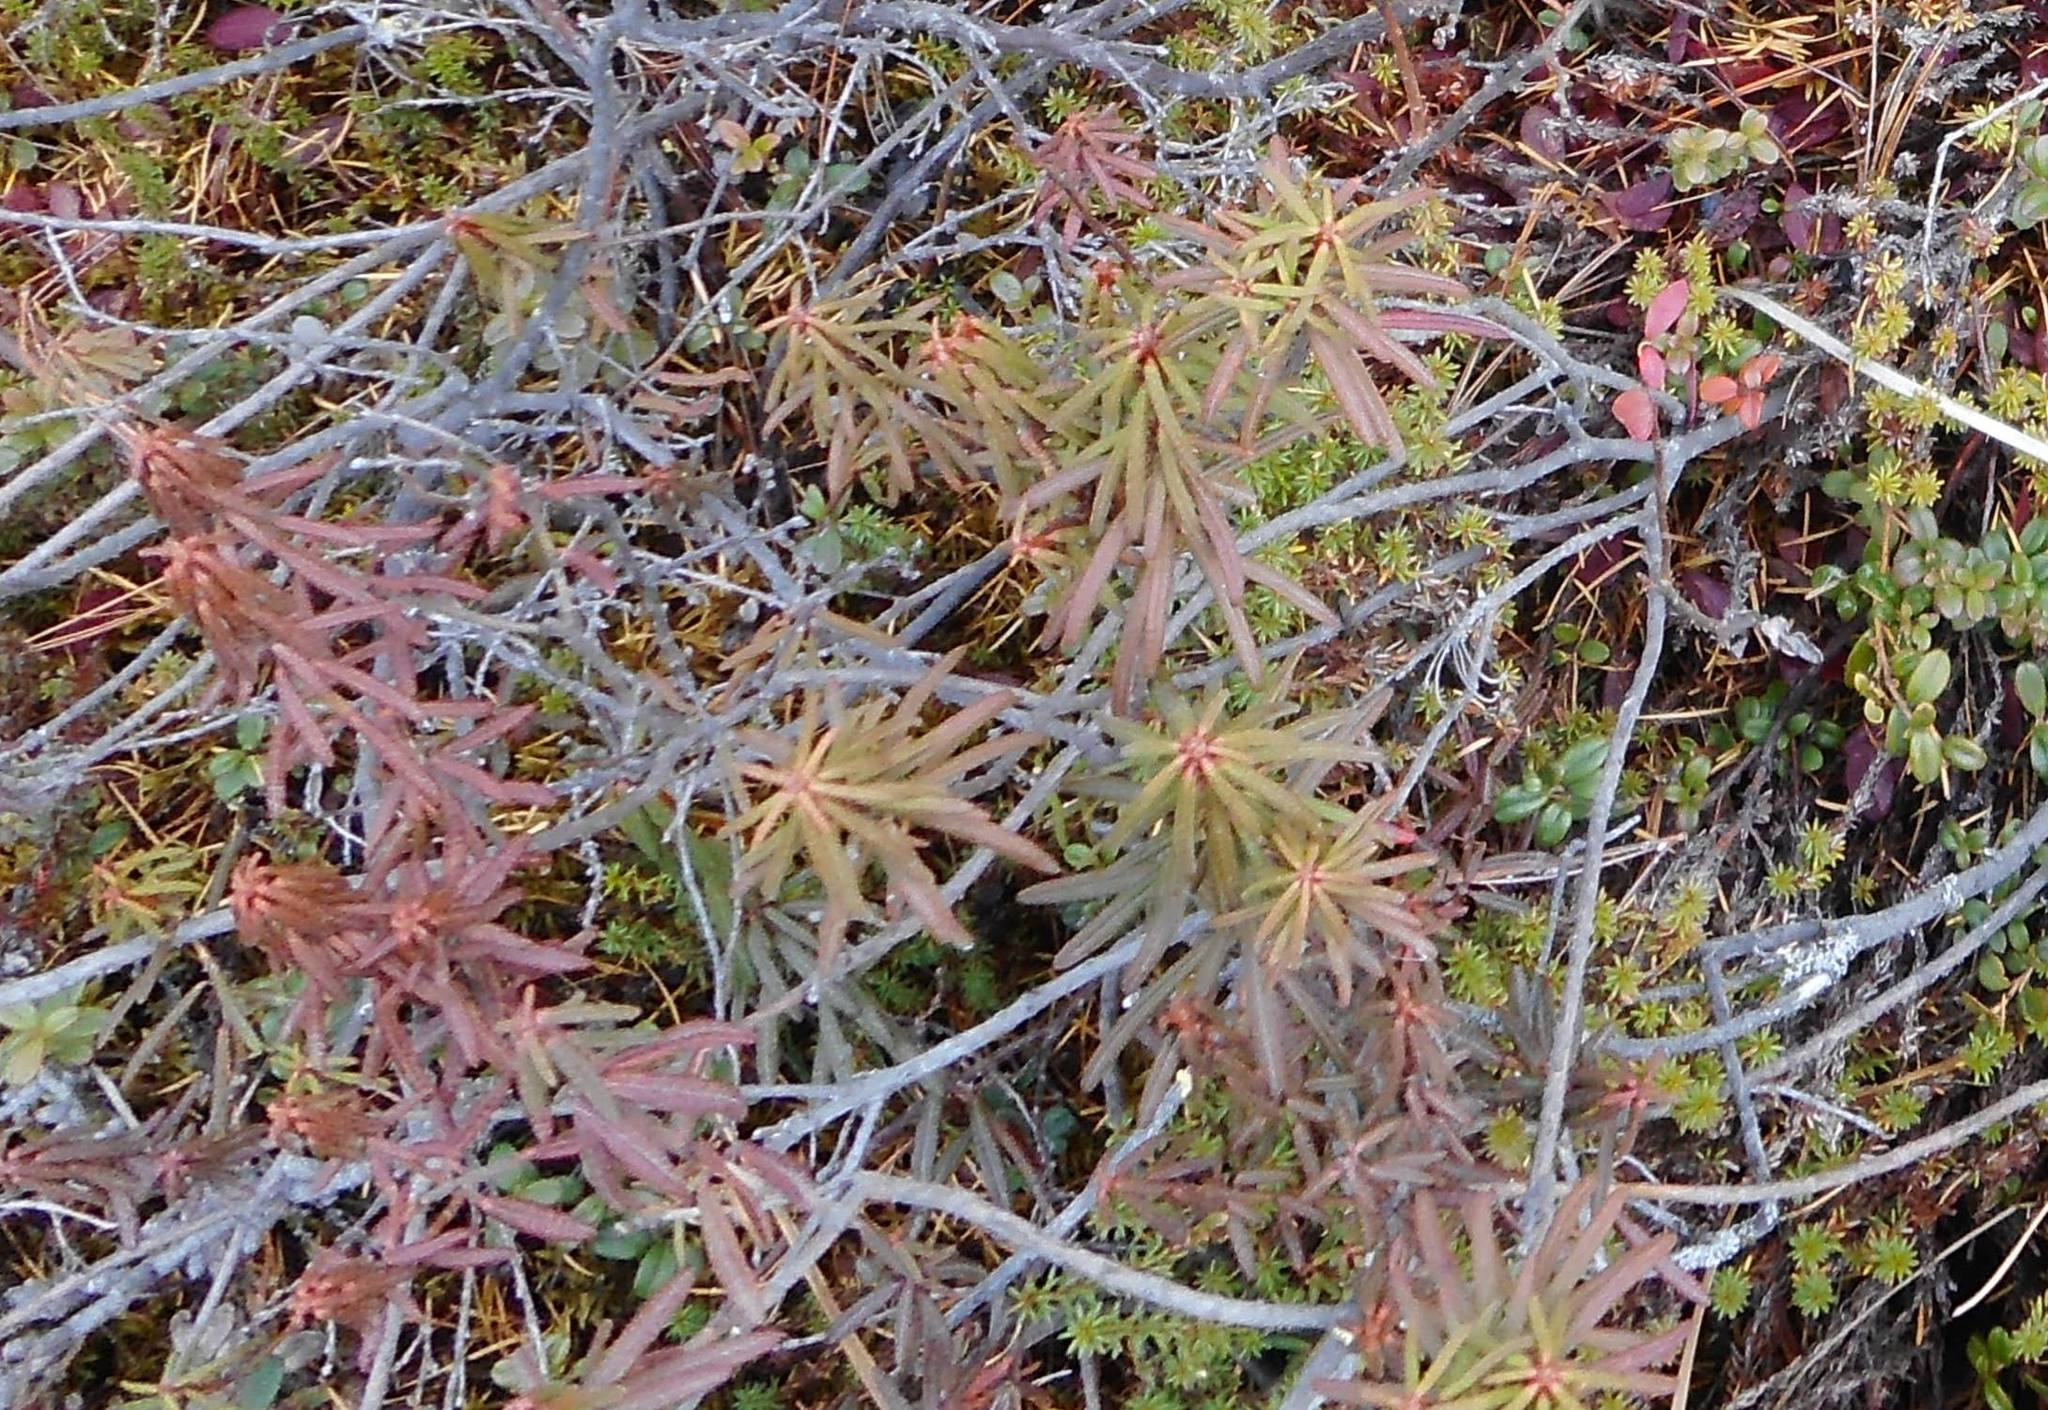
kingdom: Plantae
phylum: Tracheophyta
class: Magnoliopsida
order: Ericales
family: Ericaceae
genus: Rhododendron
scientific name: Rhododendron tomentosum
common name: Marsh labrador tea
